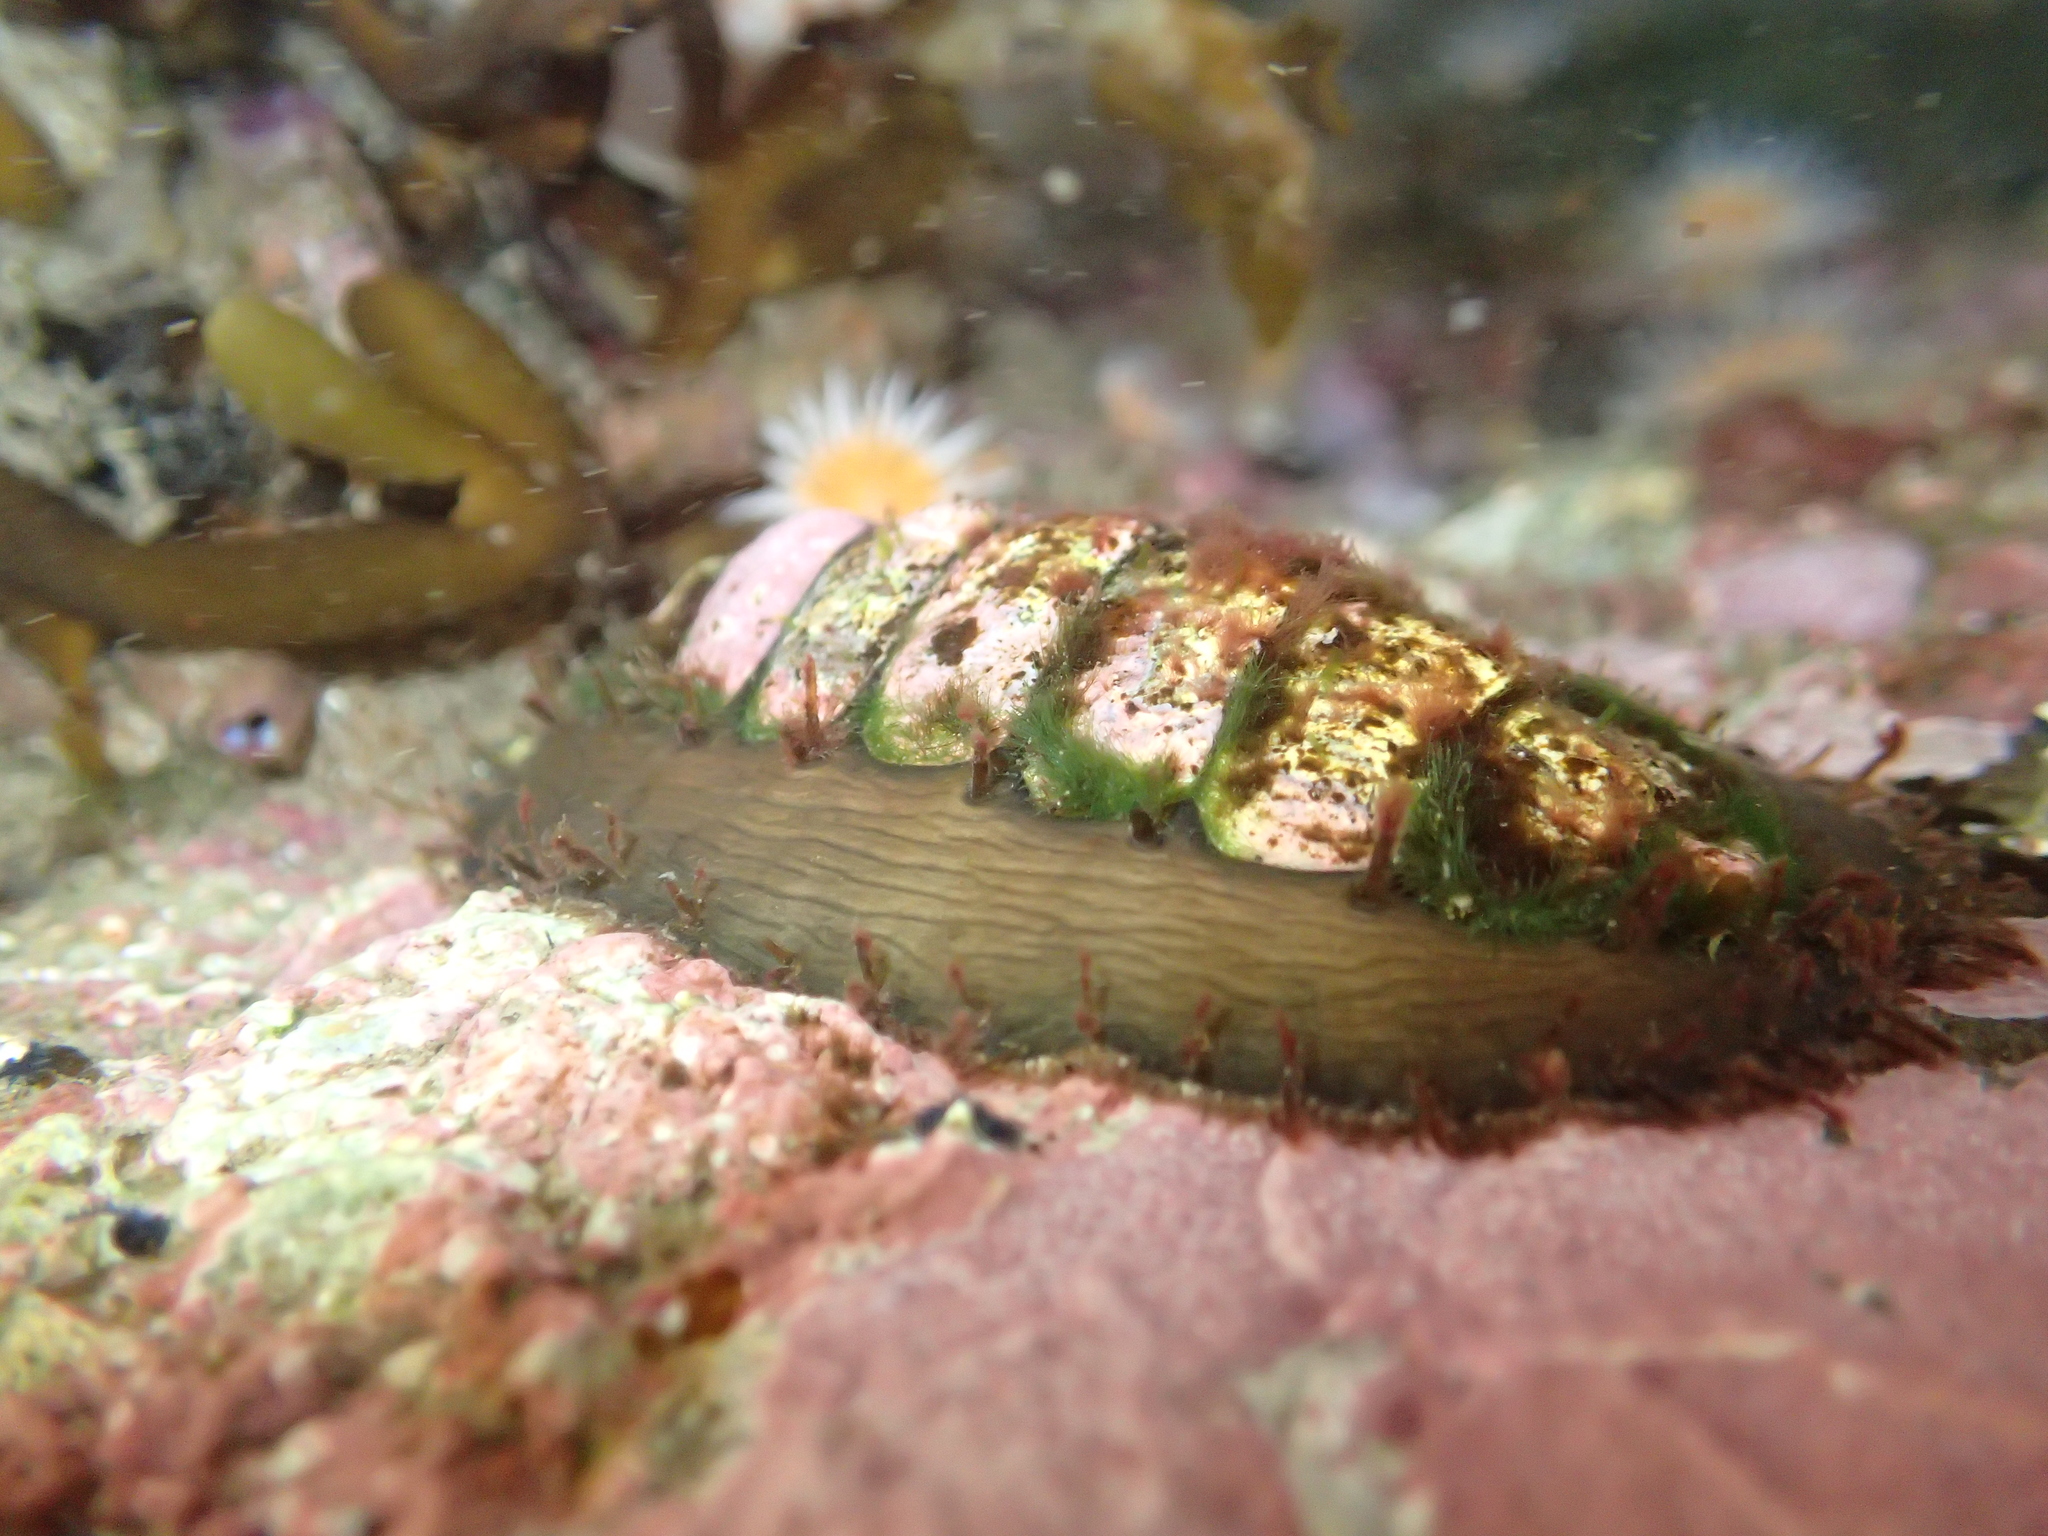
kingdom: Animalia
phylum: Mollusca
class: Polyplacophora
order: Chitonida
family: Mopaliidae
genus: Plaxiphora
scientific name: Plaxiphora biramosa
